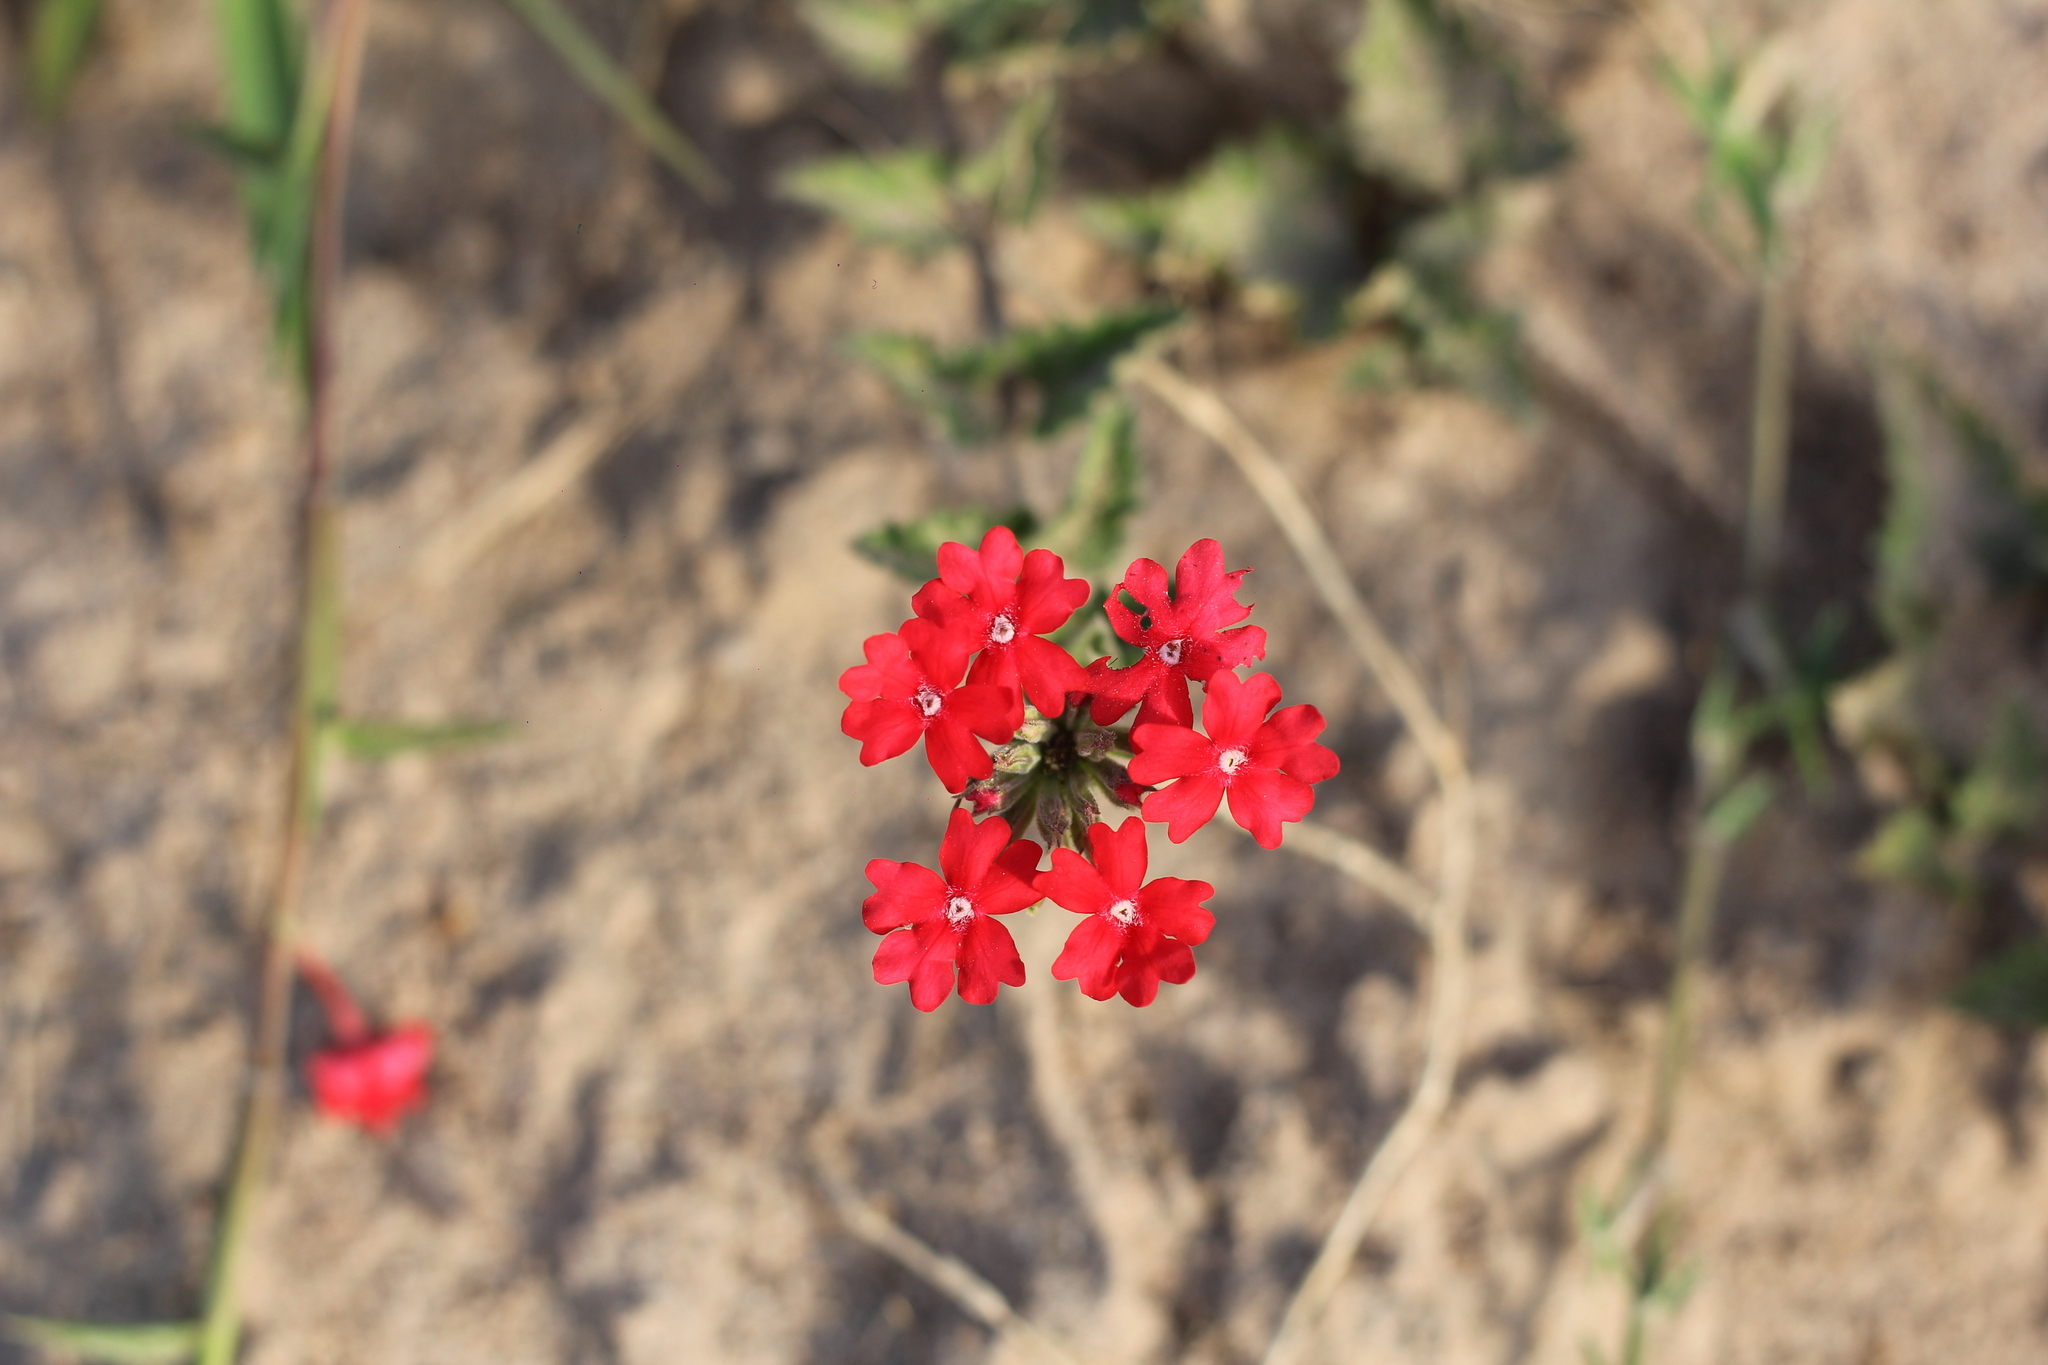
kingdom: Plantae
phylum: Tracheophyta
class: Magnoliopsida
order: Lamiales
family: Verbenaceae
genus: Verbena
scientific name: Verbena tweedieana
